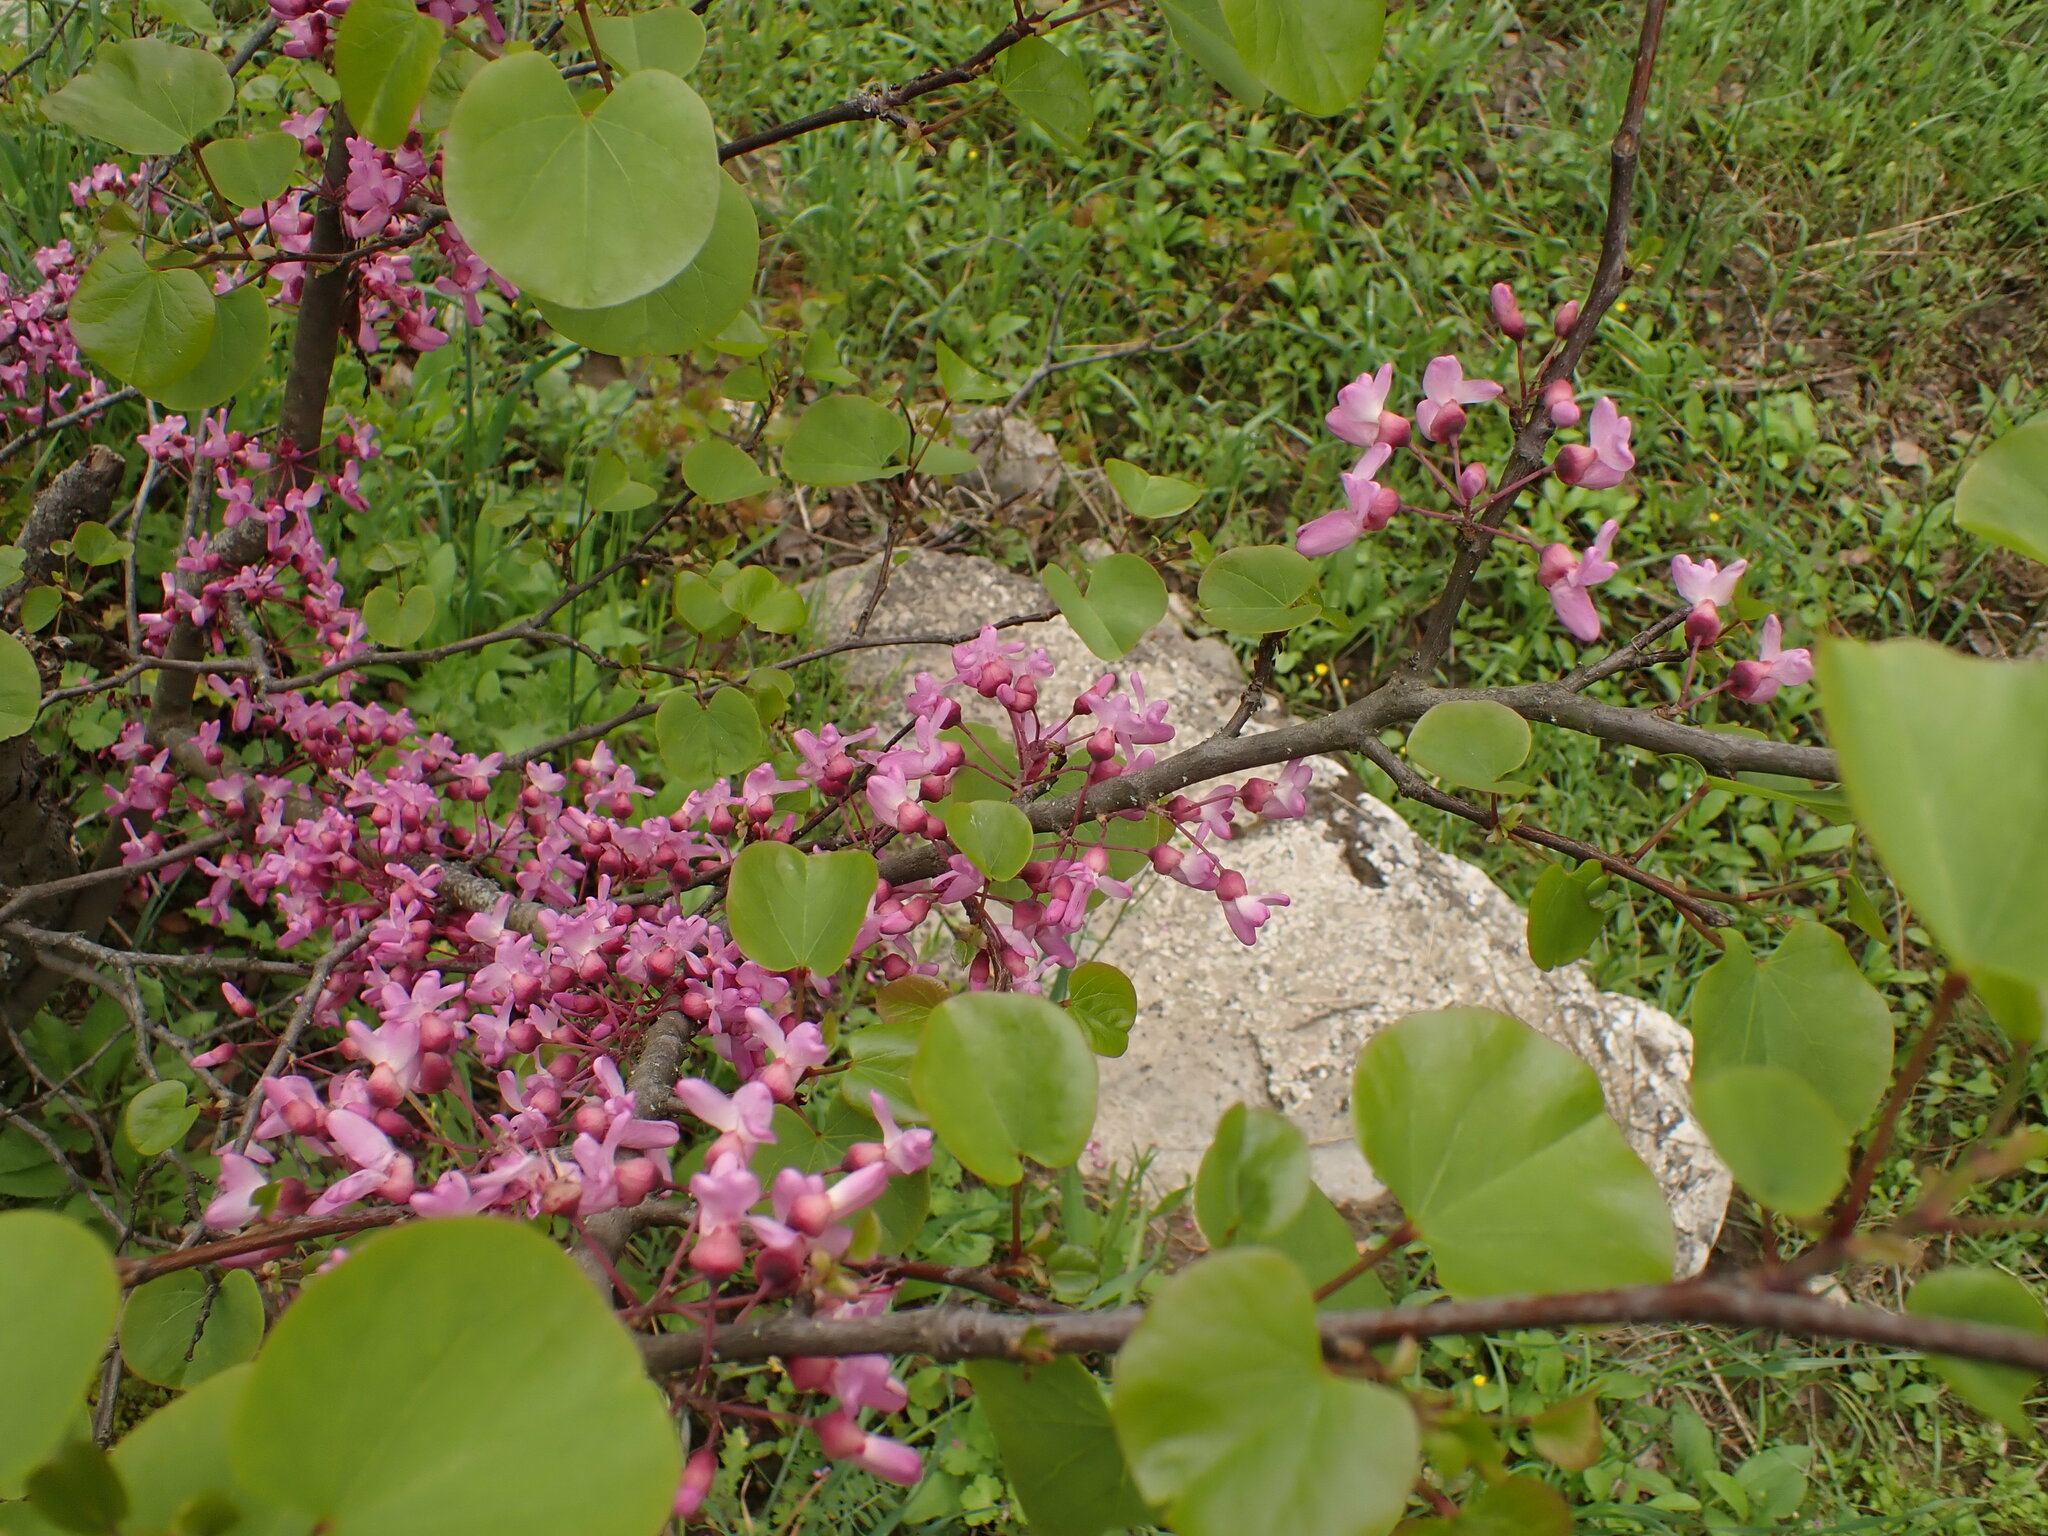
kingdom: Plantae
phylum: Tracheophyta
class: Magnoliopsida
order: Fabales
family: Fabaceae
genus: Cercis
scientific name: Cercis siliquastrum
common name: Judas tree
